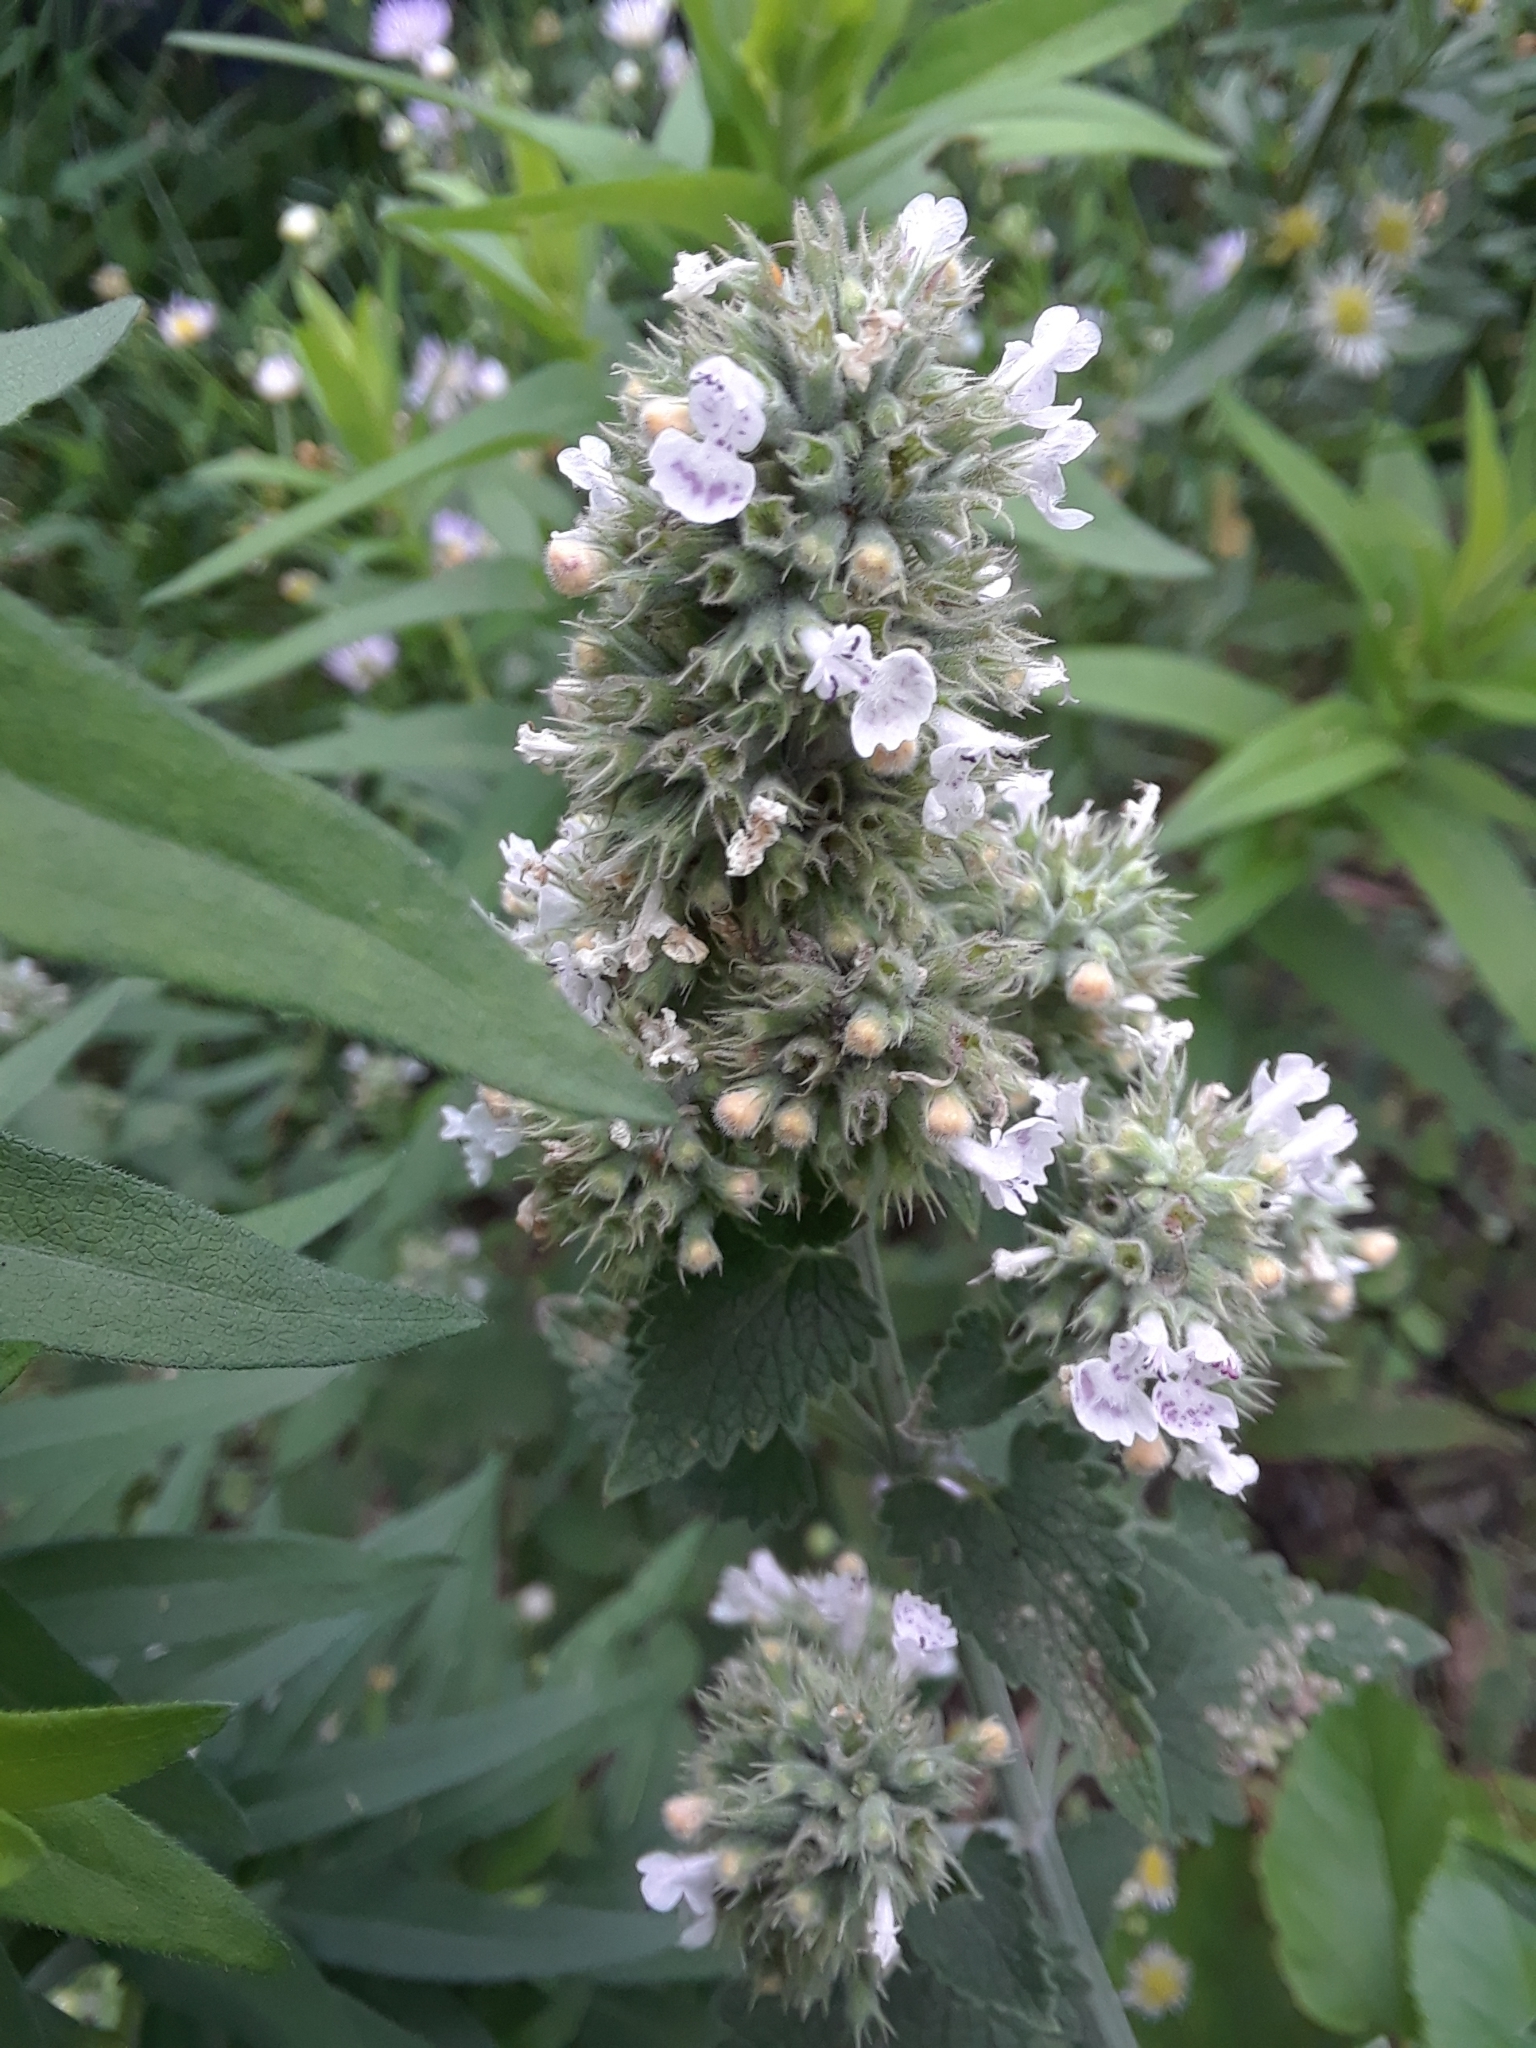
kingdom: Plantae
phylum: Tracheophyta
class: Magnoliopsida
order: Lamiales
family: Lamiaceae
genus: Nepeta
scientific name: Nepeta cataria
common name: Catnip
